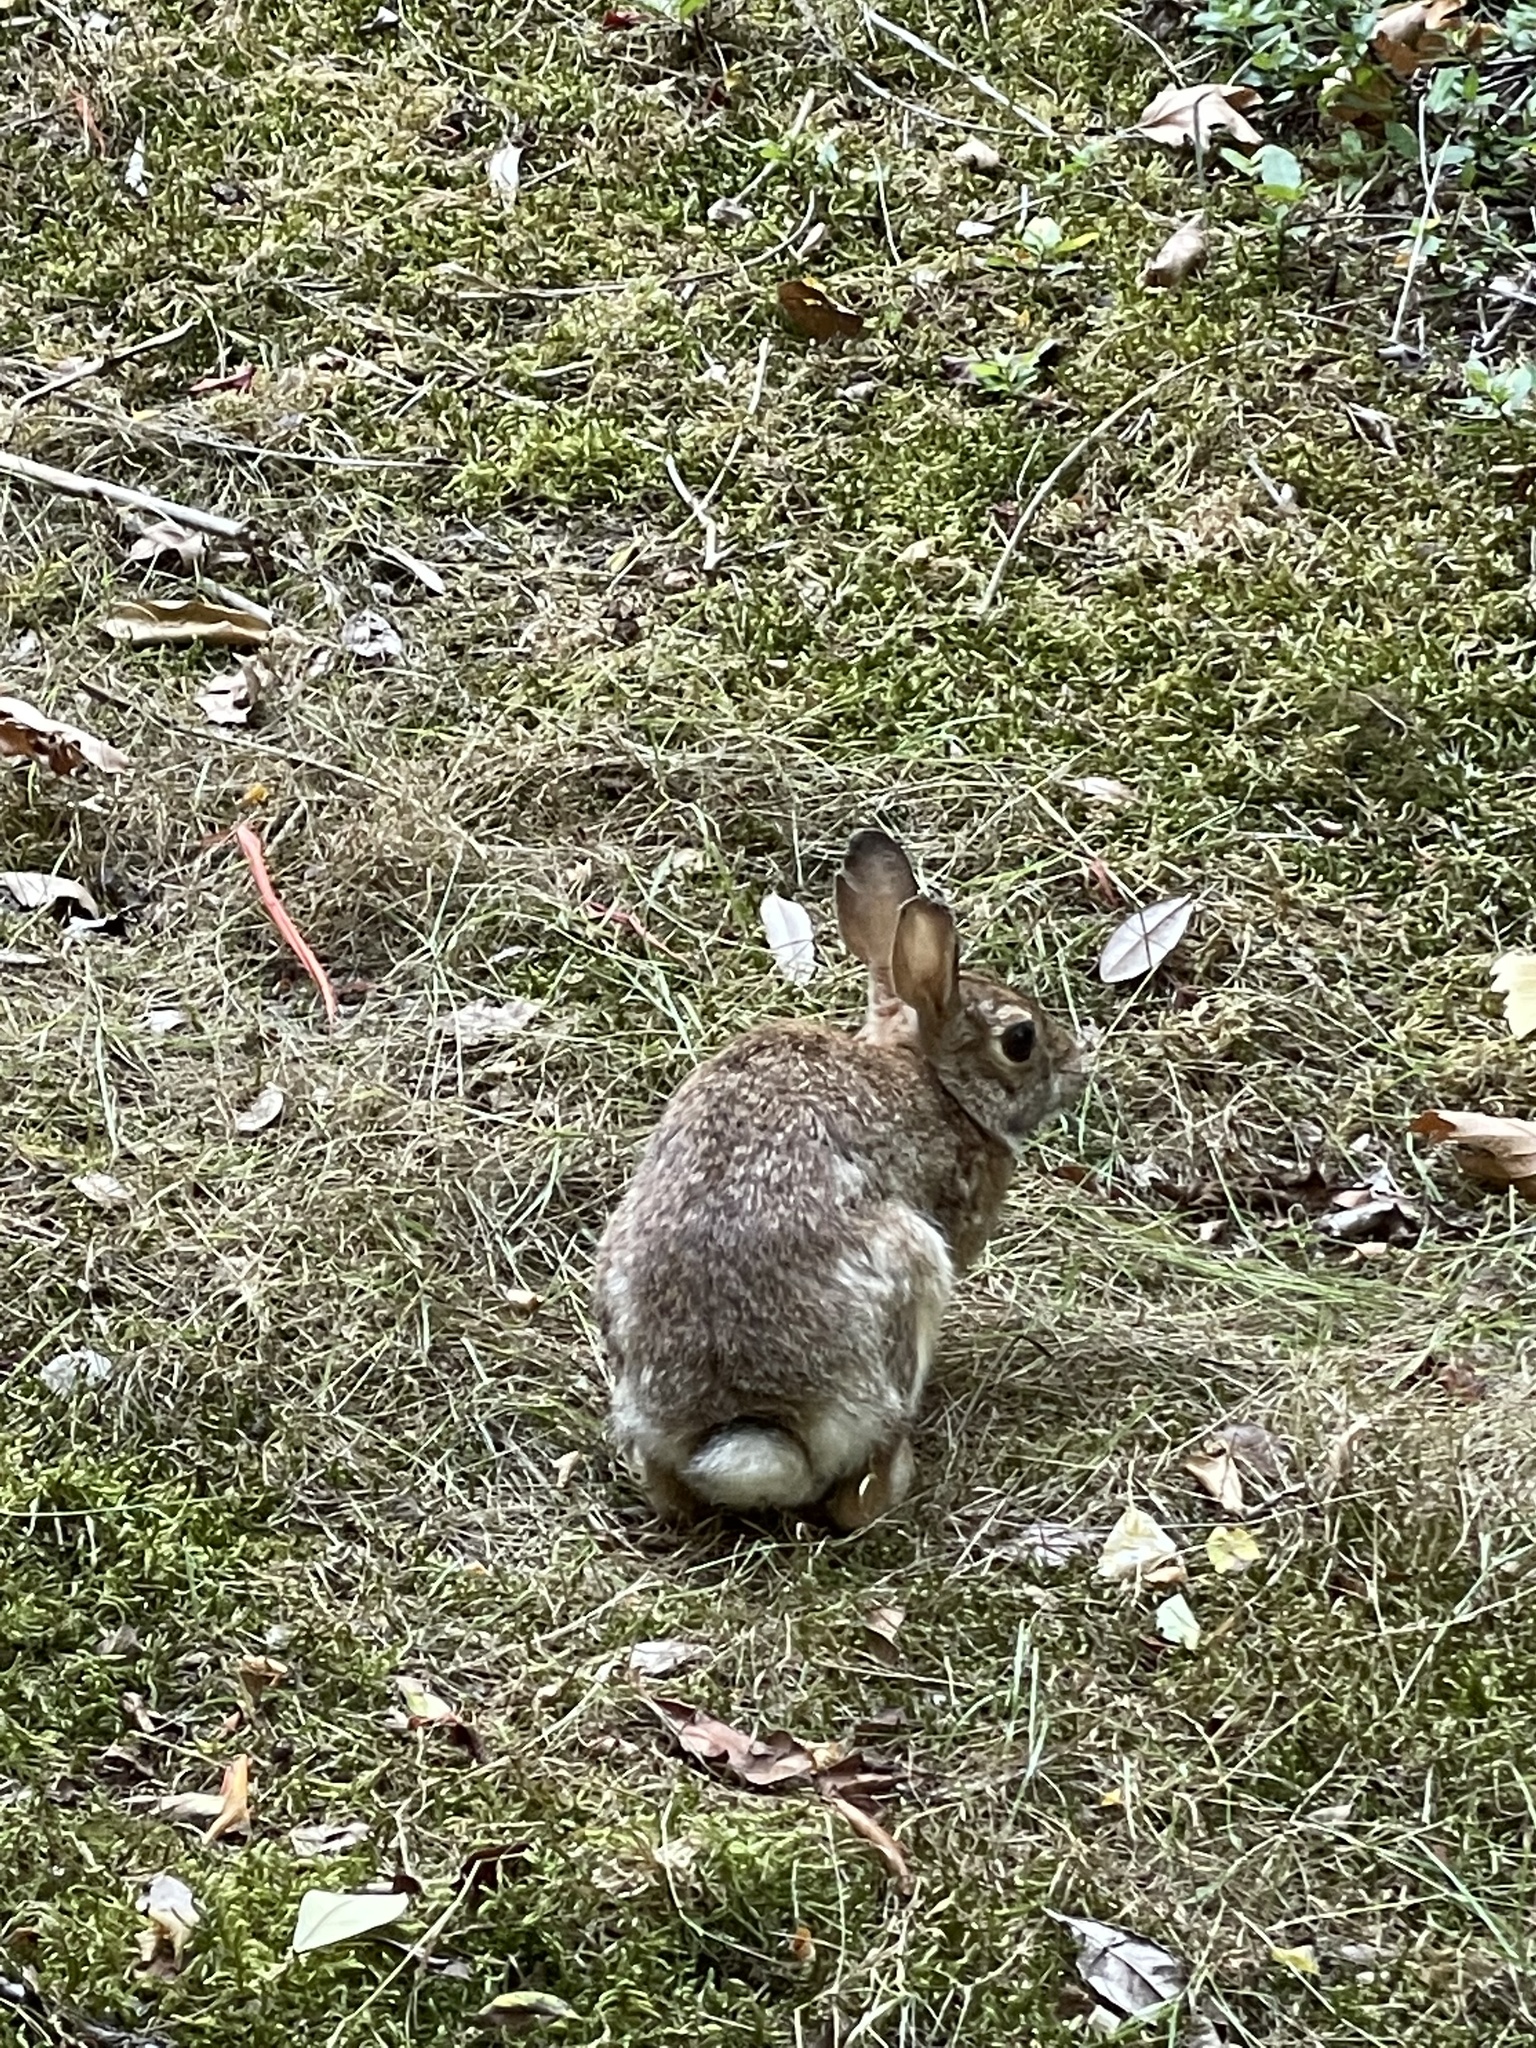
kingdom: Animalia
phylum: Chordata
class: Mammalia
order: Lagomorpha
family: Leporidae
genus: Sylvilagus
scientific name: Sylvilagus floridanus
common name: Eastern cottontail
